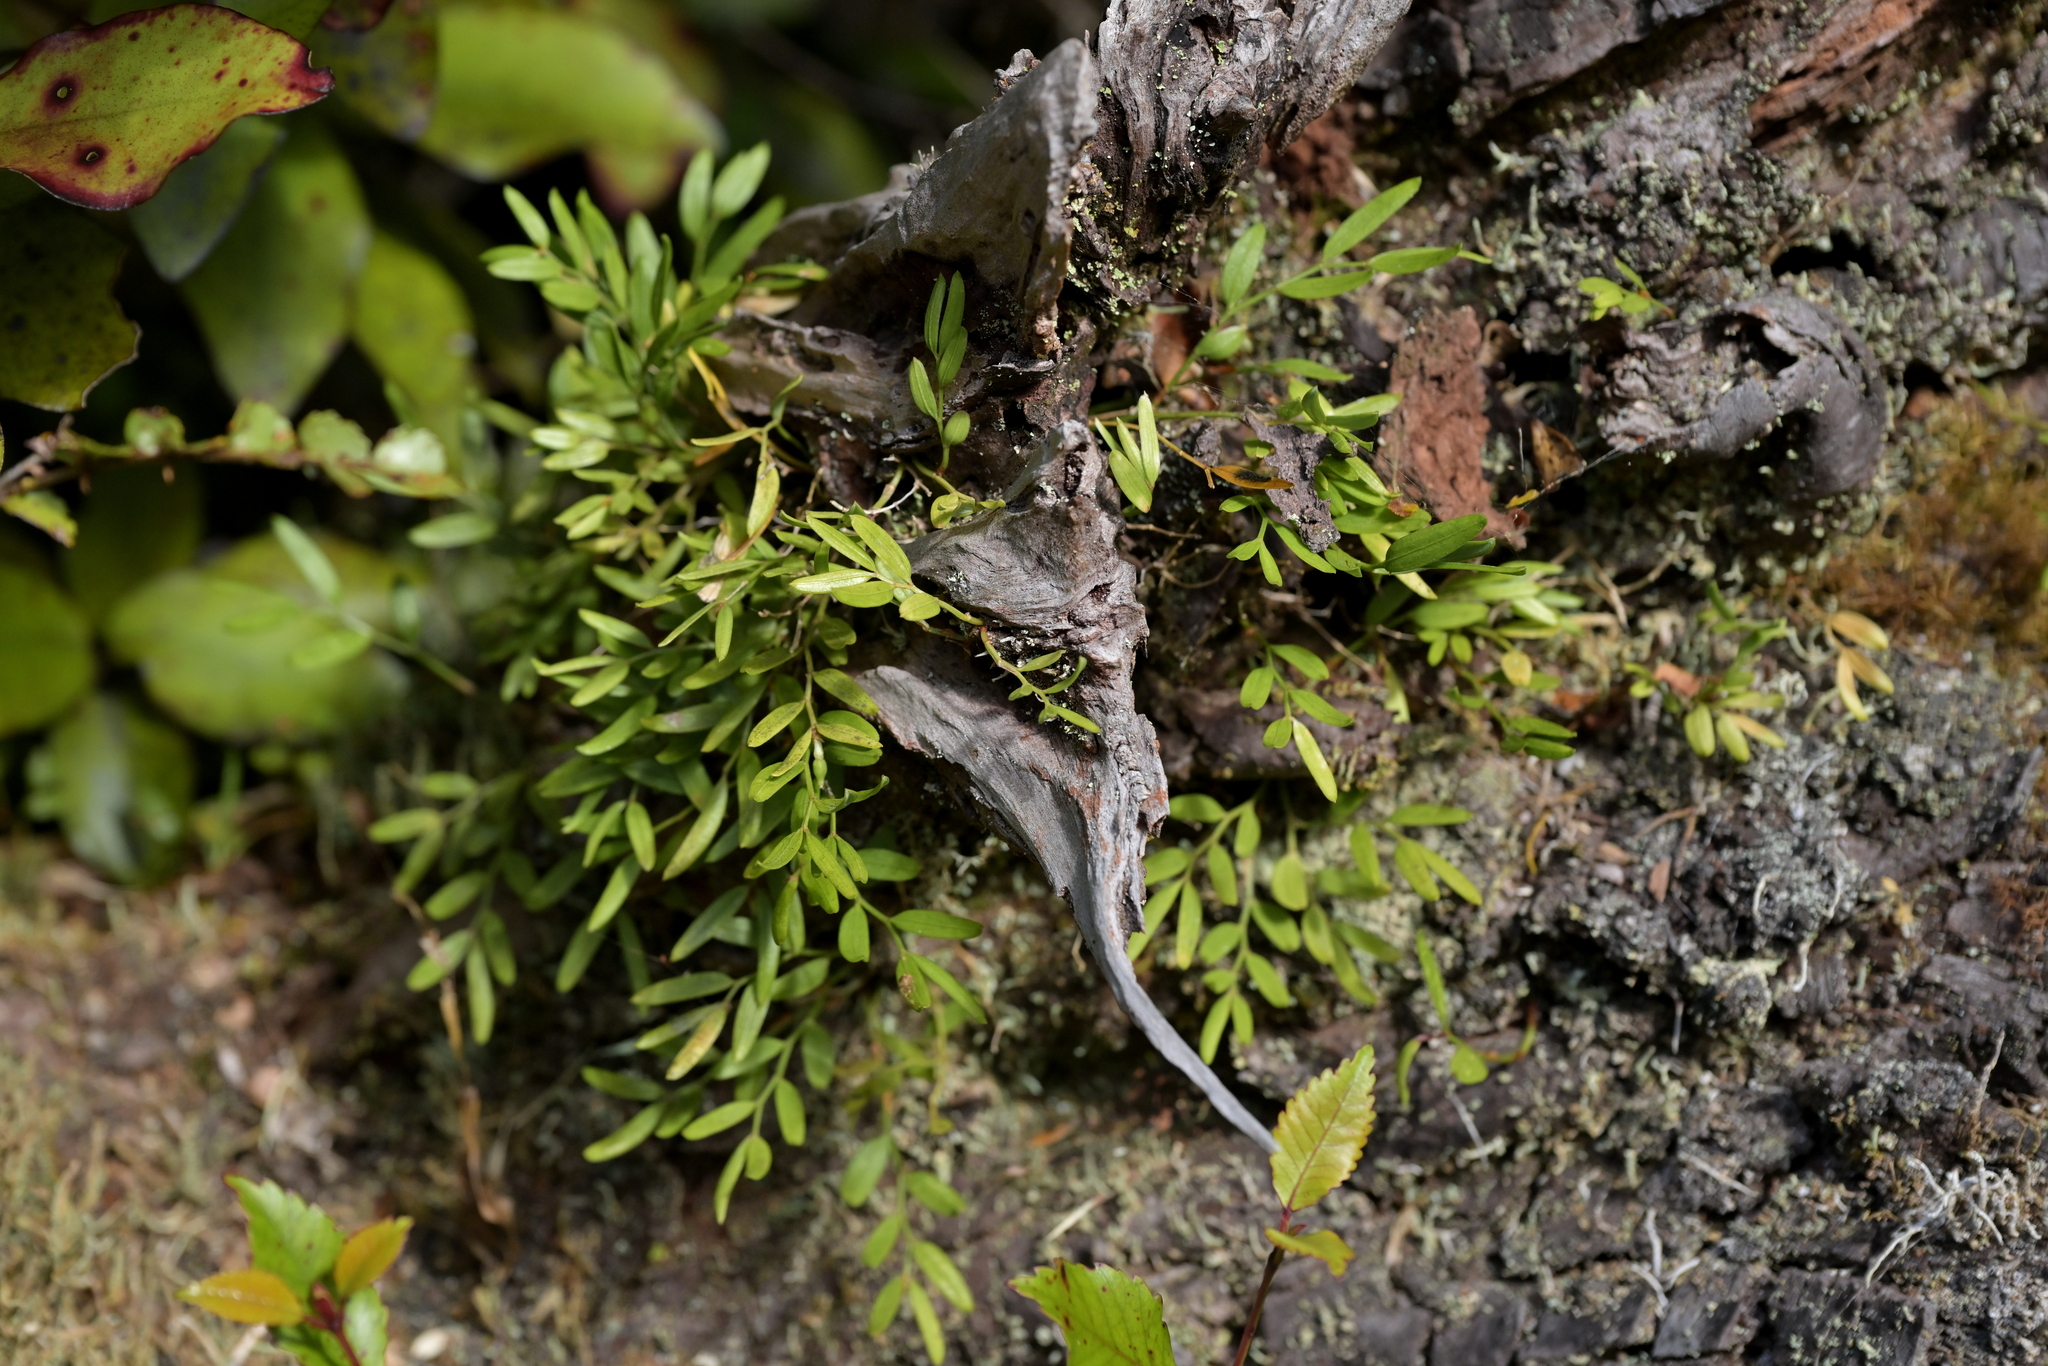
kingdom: Plantae
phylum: Tracheophyta
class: Liliopsida
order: Liliales
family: Alstroemeriaceae
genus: Luzuriaga
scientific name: Luzuriaga parviflora
